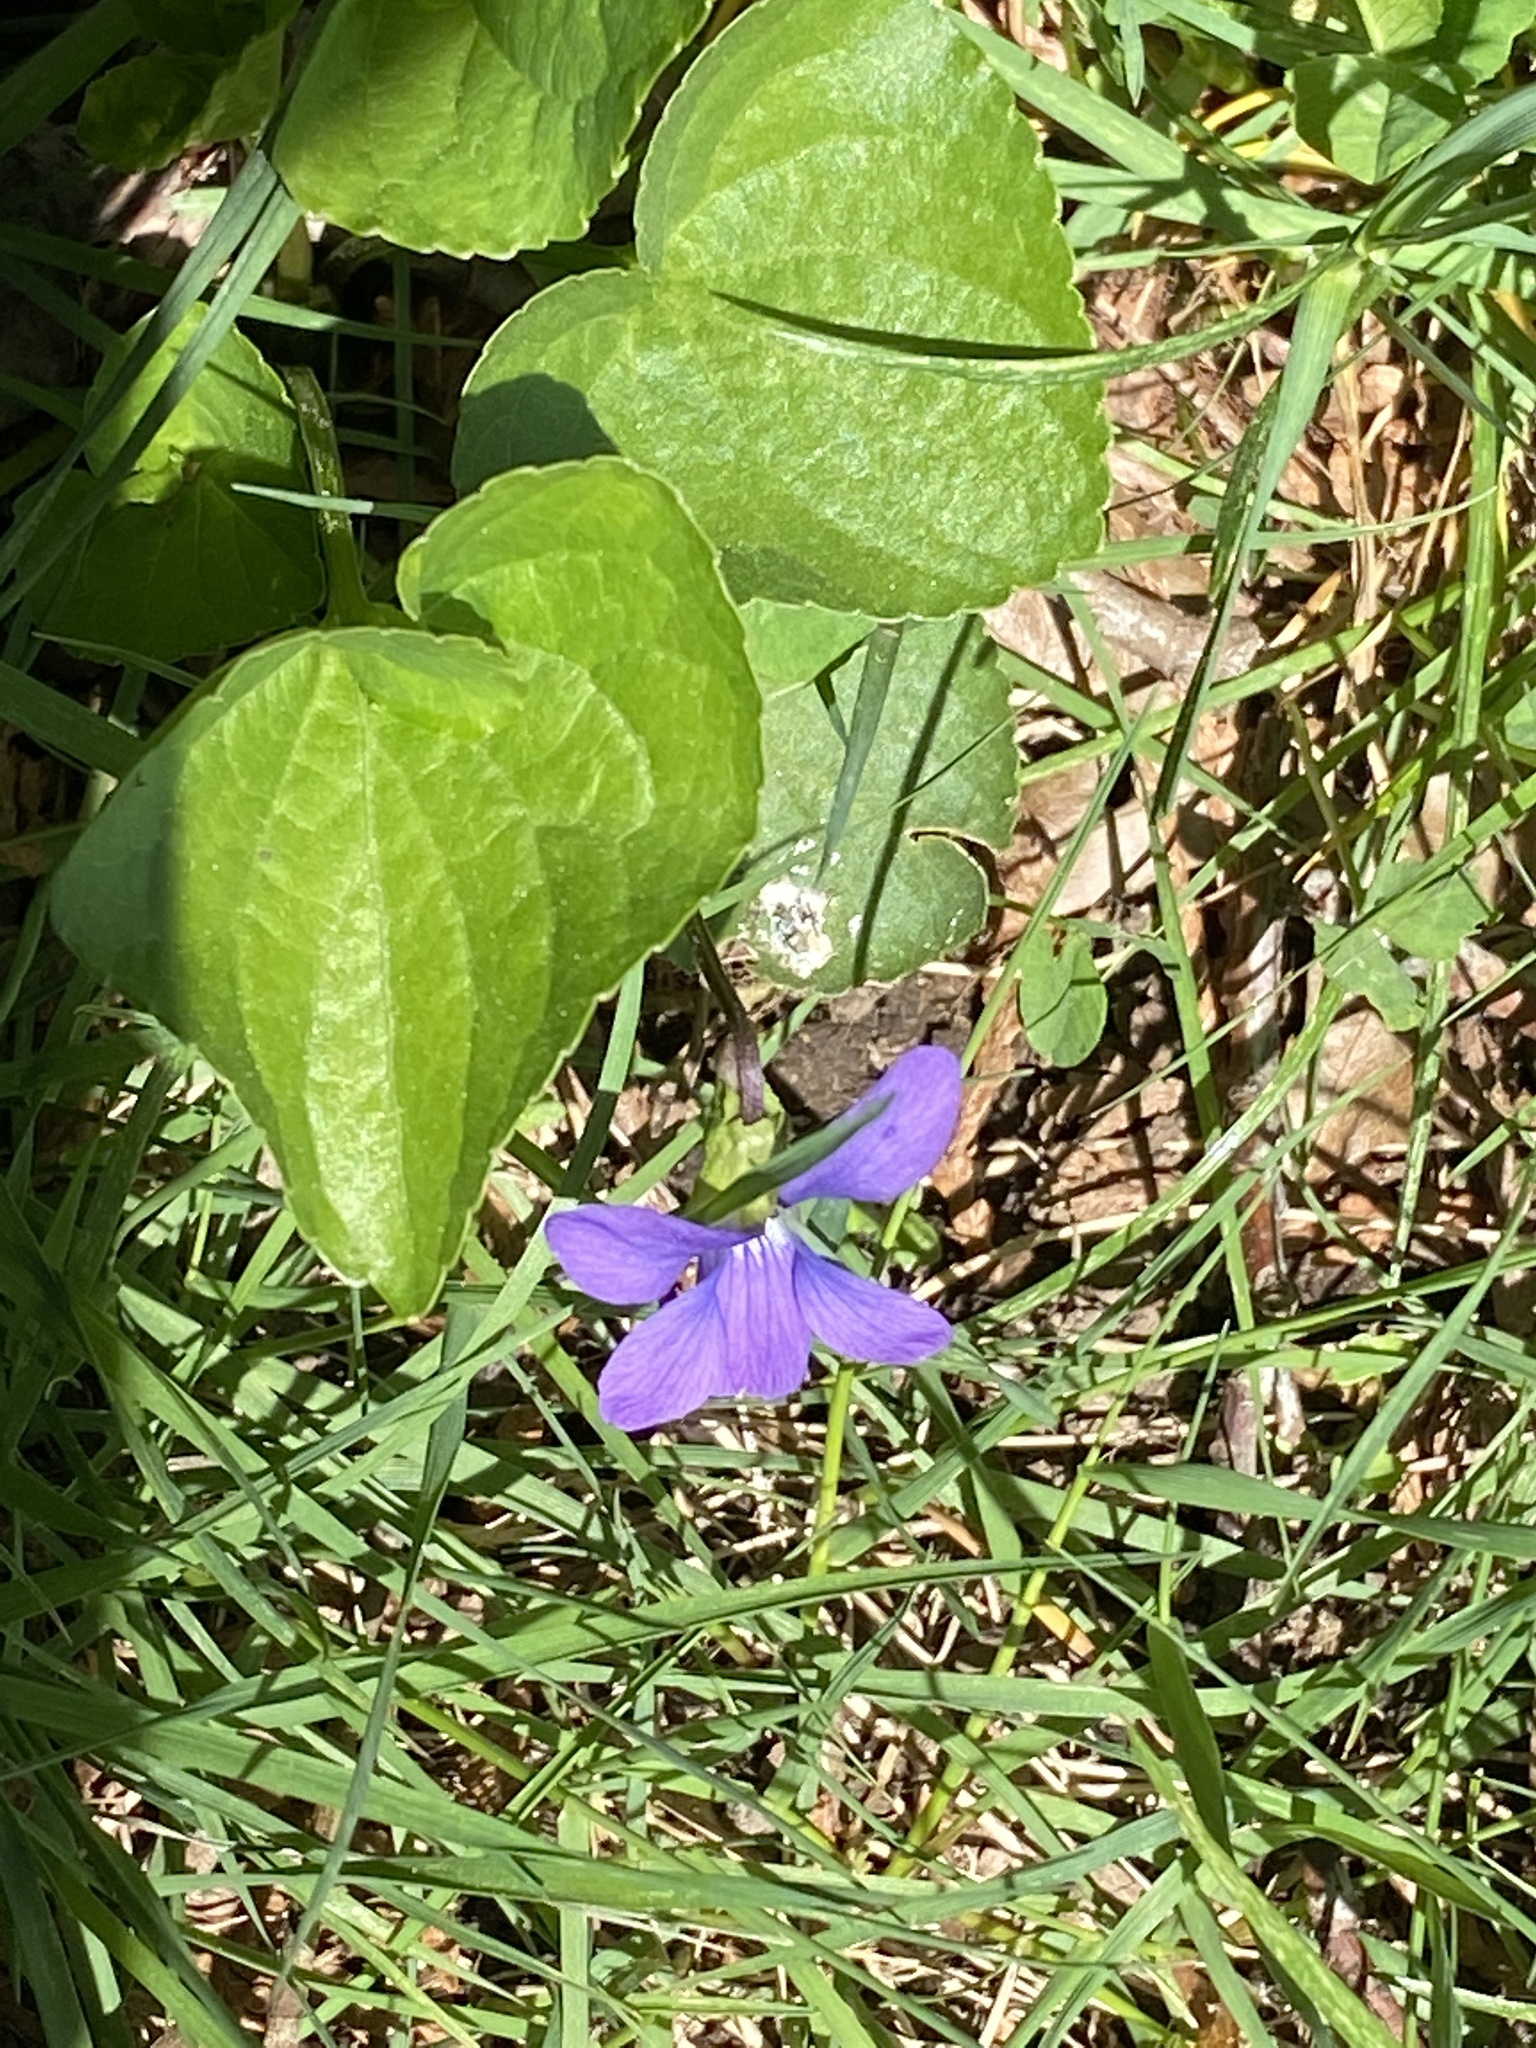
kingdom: Plantae
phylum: Tracheophyta
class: Magnoliopsida
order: Malpighiales
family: Violaceae
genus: Viola
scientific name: Viola sororia
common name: Dooryard violet
